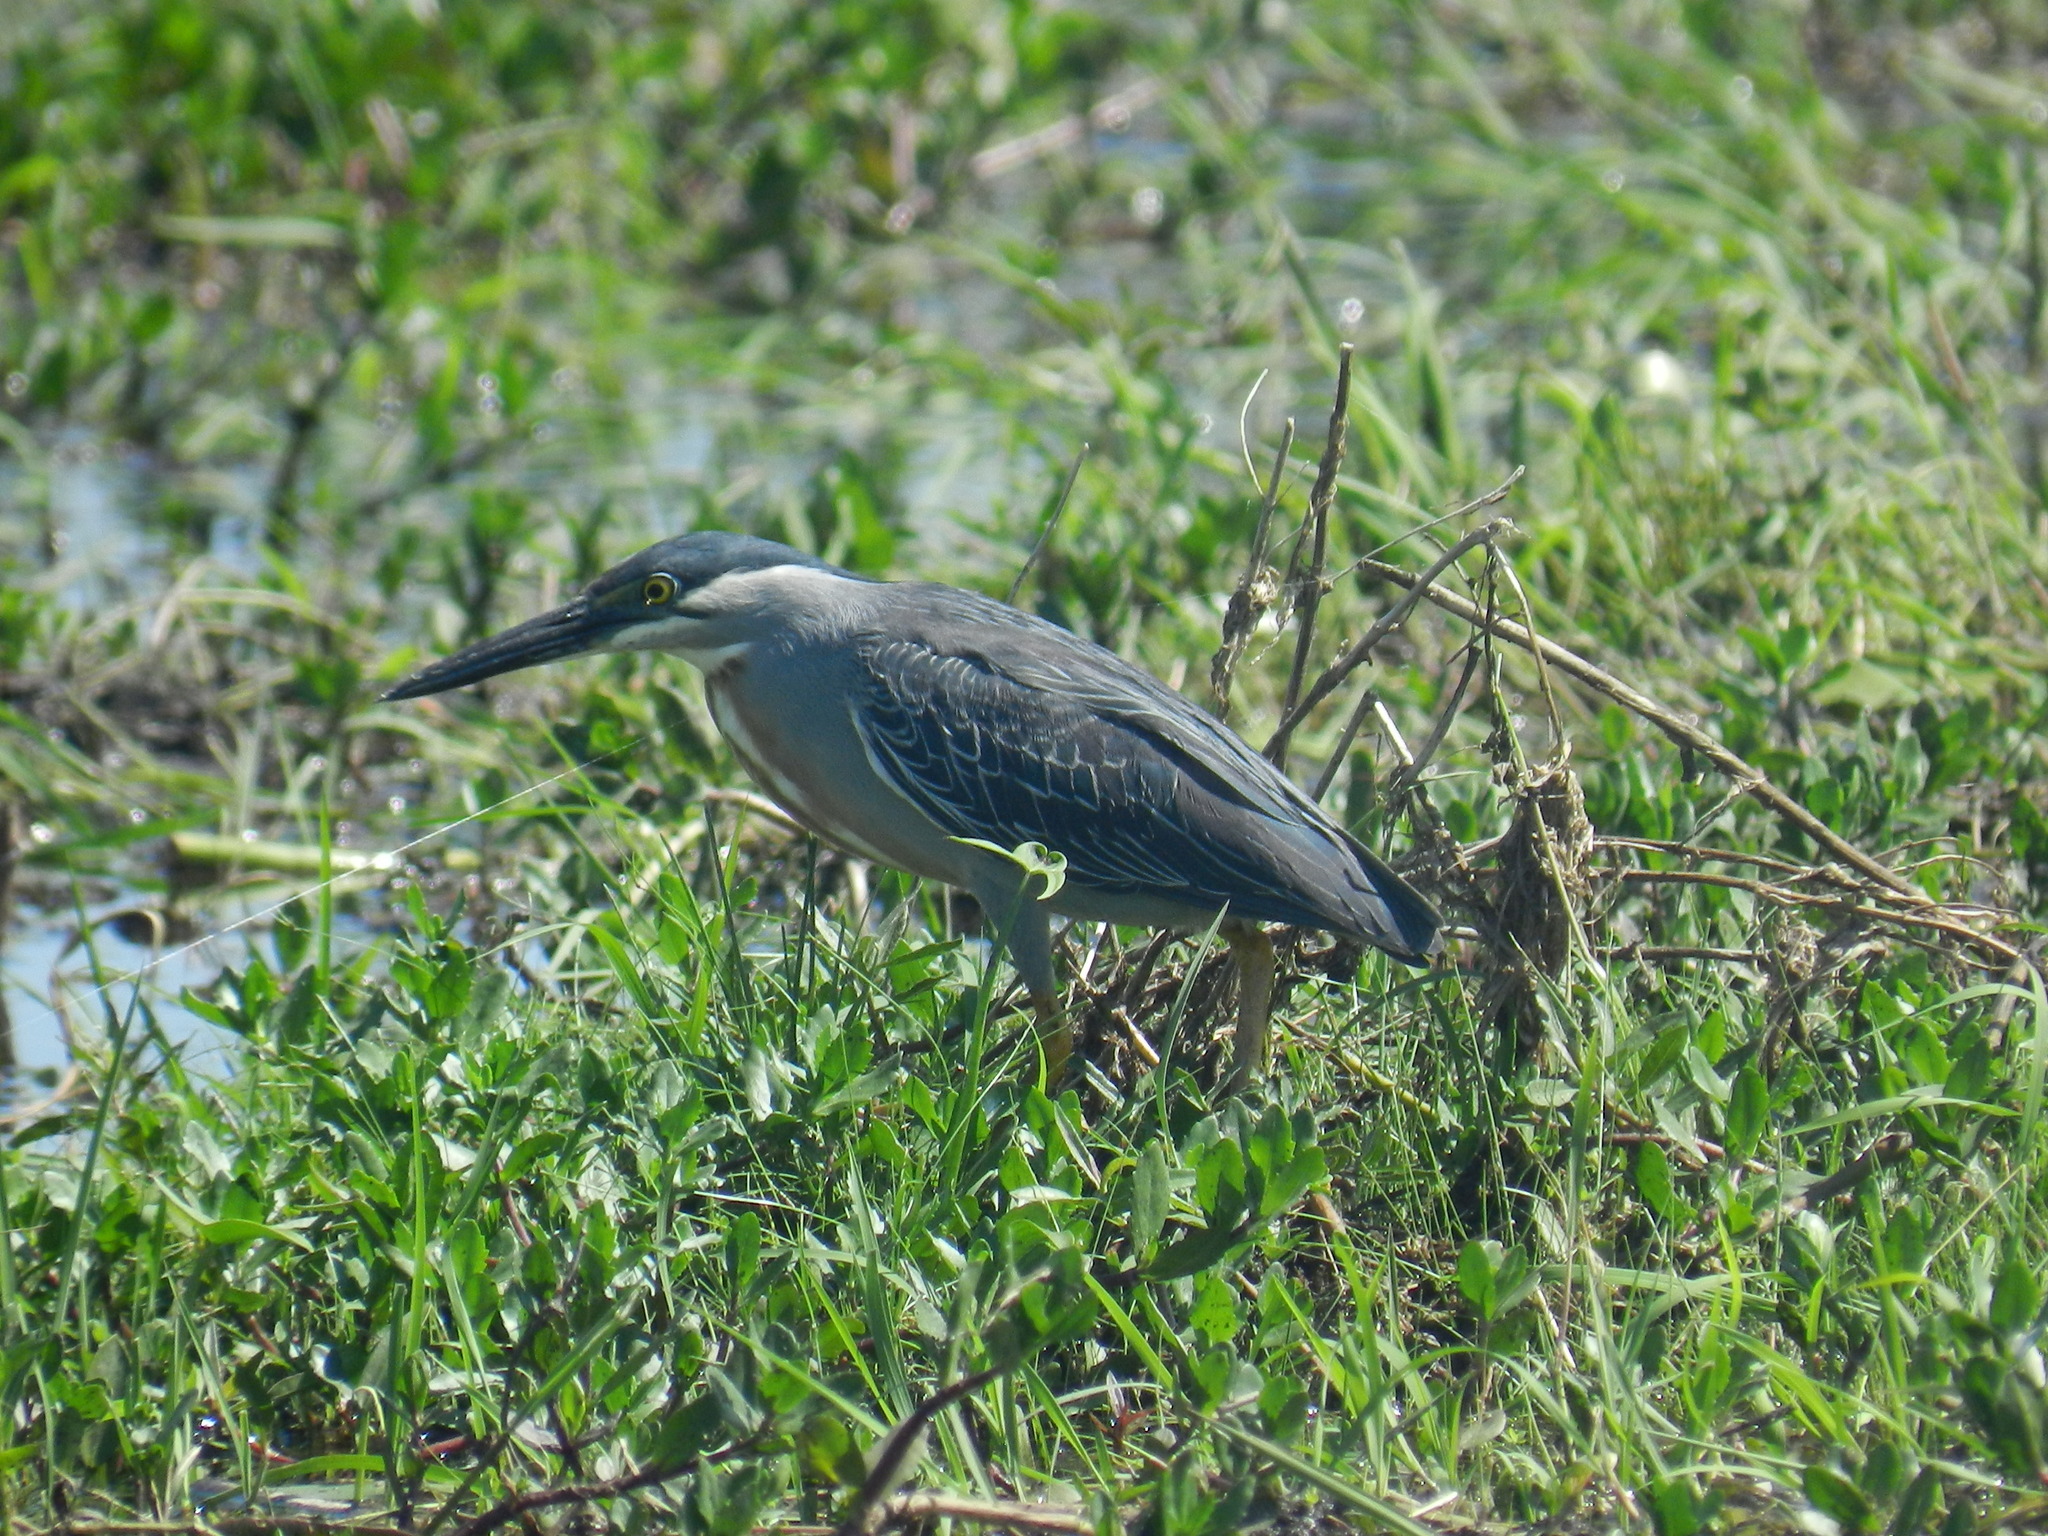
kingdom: Animalia
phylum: Chordata
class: Aves
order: Pelecaniformes
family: Ardeidae
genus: Butorides
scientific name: Butorides striata
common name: Striated heron
